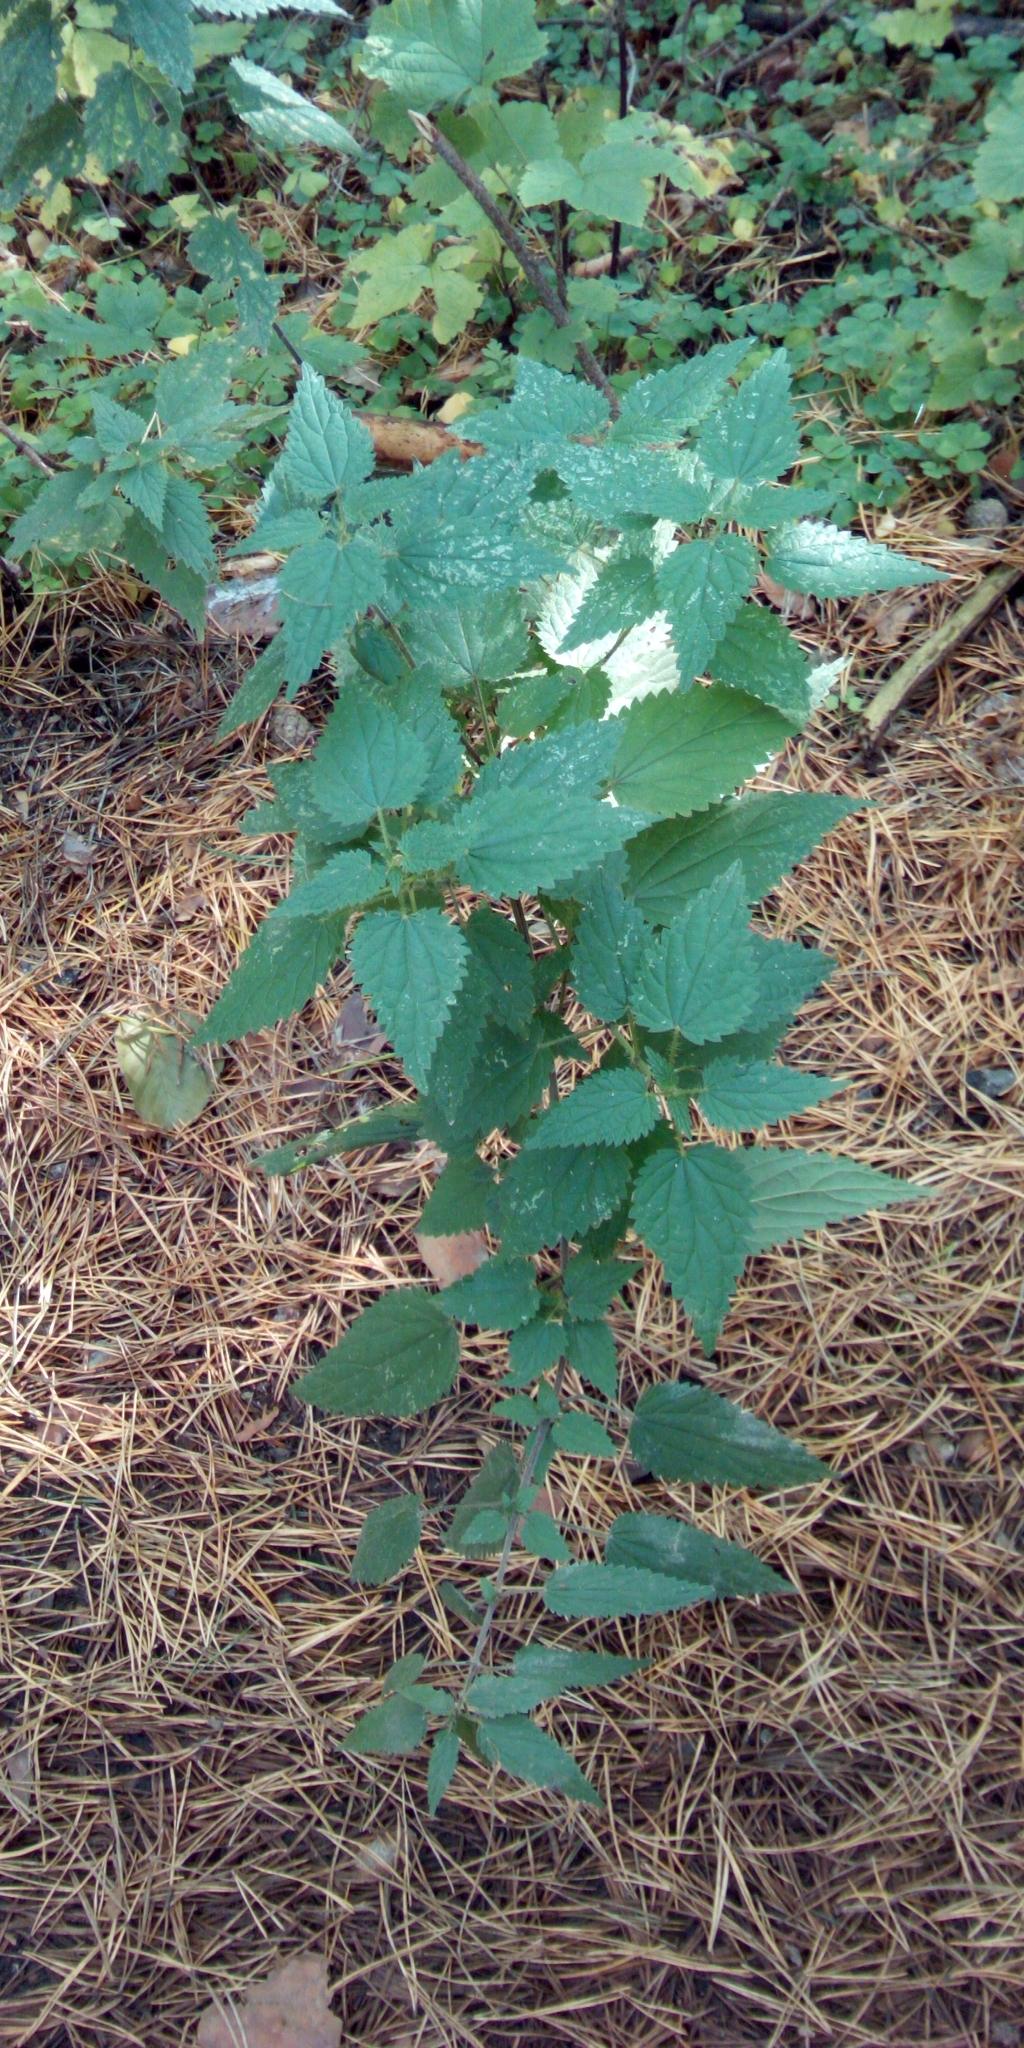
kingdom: Plantae
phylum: Tracheophyta
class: Magnoliopsida
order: Rosales
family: Urticaceae
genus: Urtica
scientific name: Urtica dioica
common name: Common nettle
